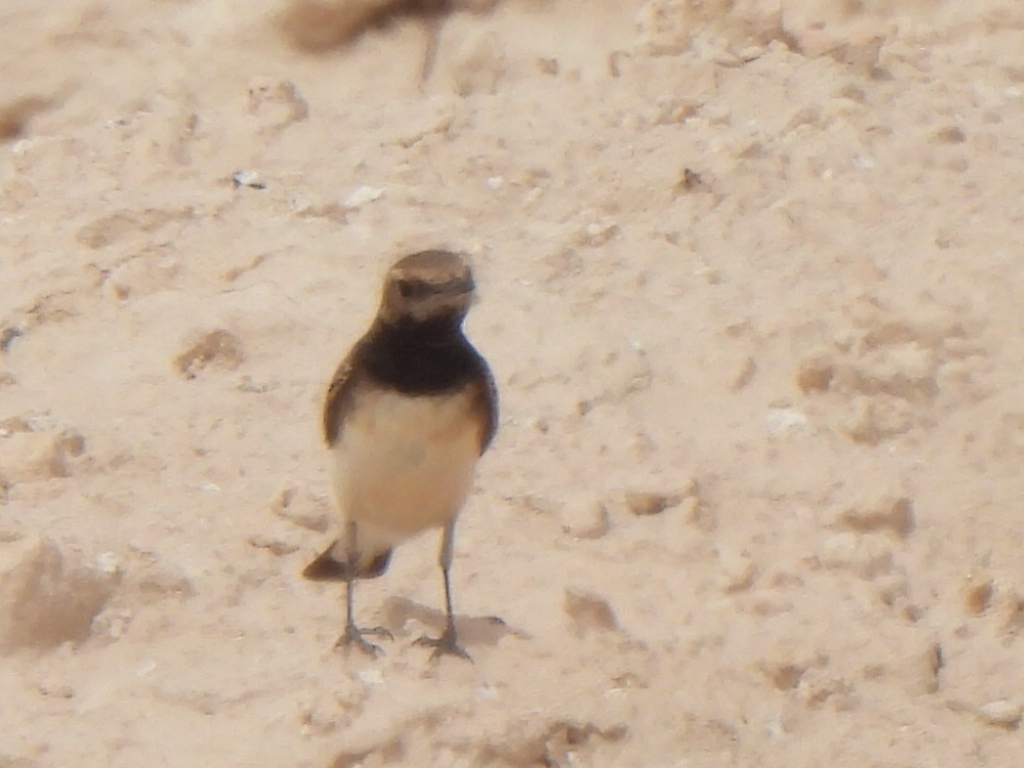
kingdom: Animalia
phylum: Chordata
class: Aves
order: Passeriformes
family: Muscicapidae
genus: Oenanthe
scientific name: Oenanthe deserti
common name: Desert wheatear
